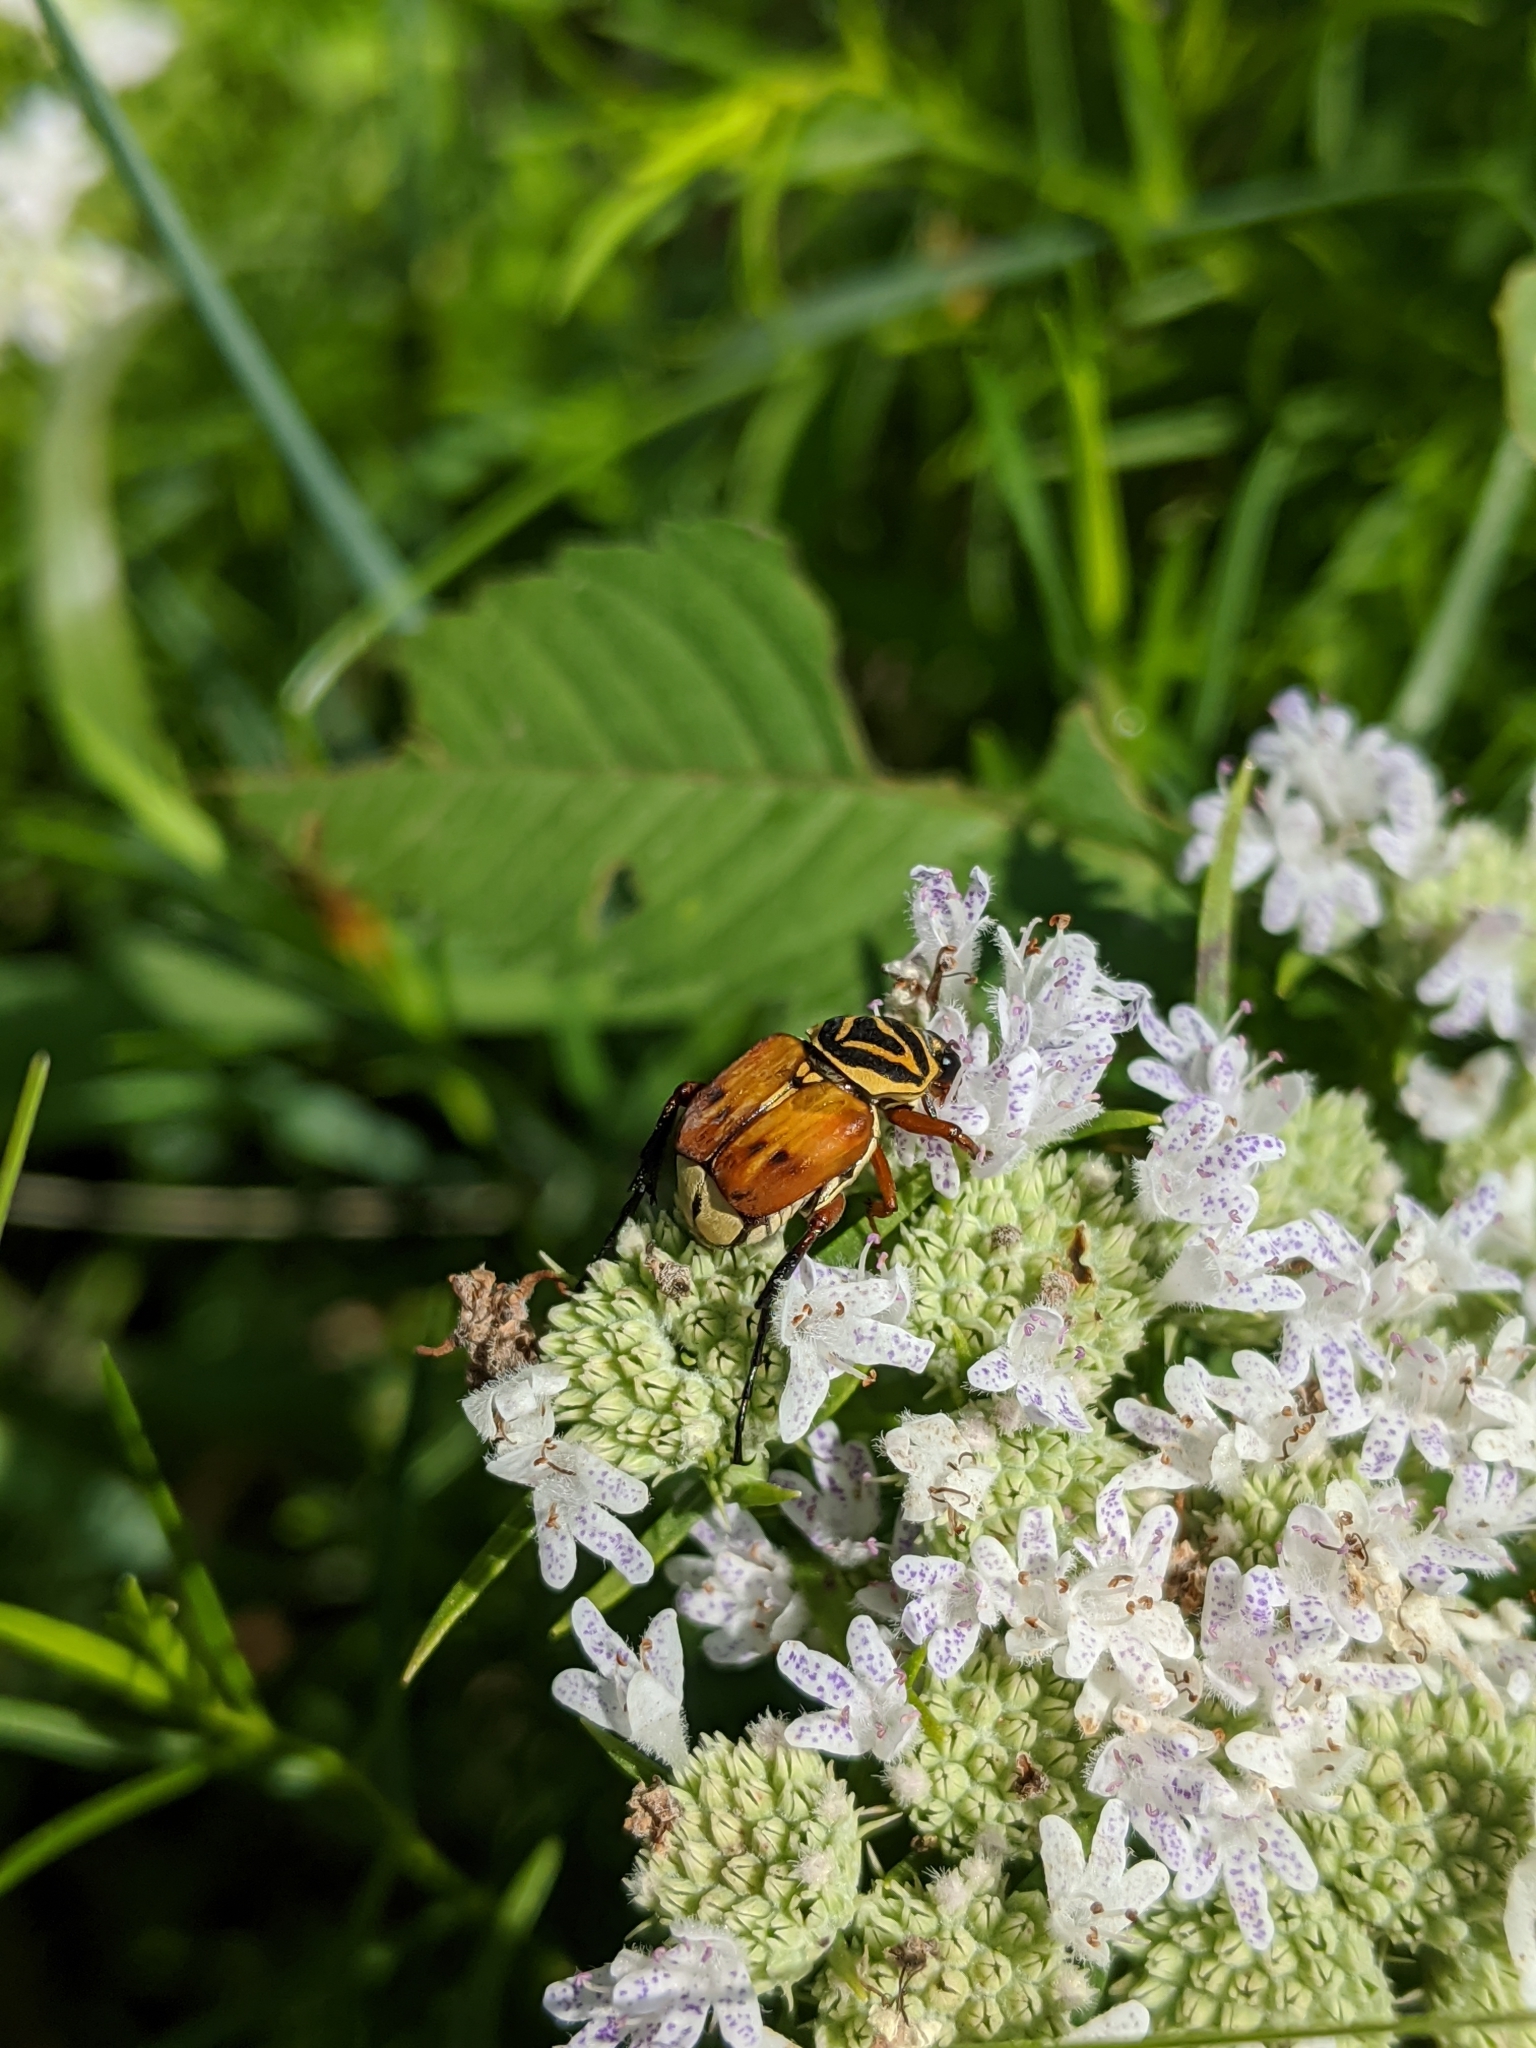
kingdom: Animalia
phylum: Arthropoda
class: Insecta
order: Coleoptera
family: Scarabaeidae
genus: Trigonopeltastes
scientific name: Trigonopeltastes delta
